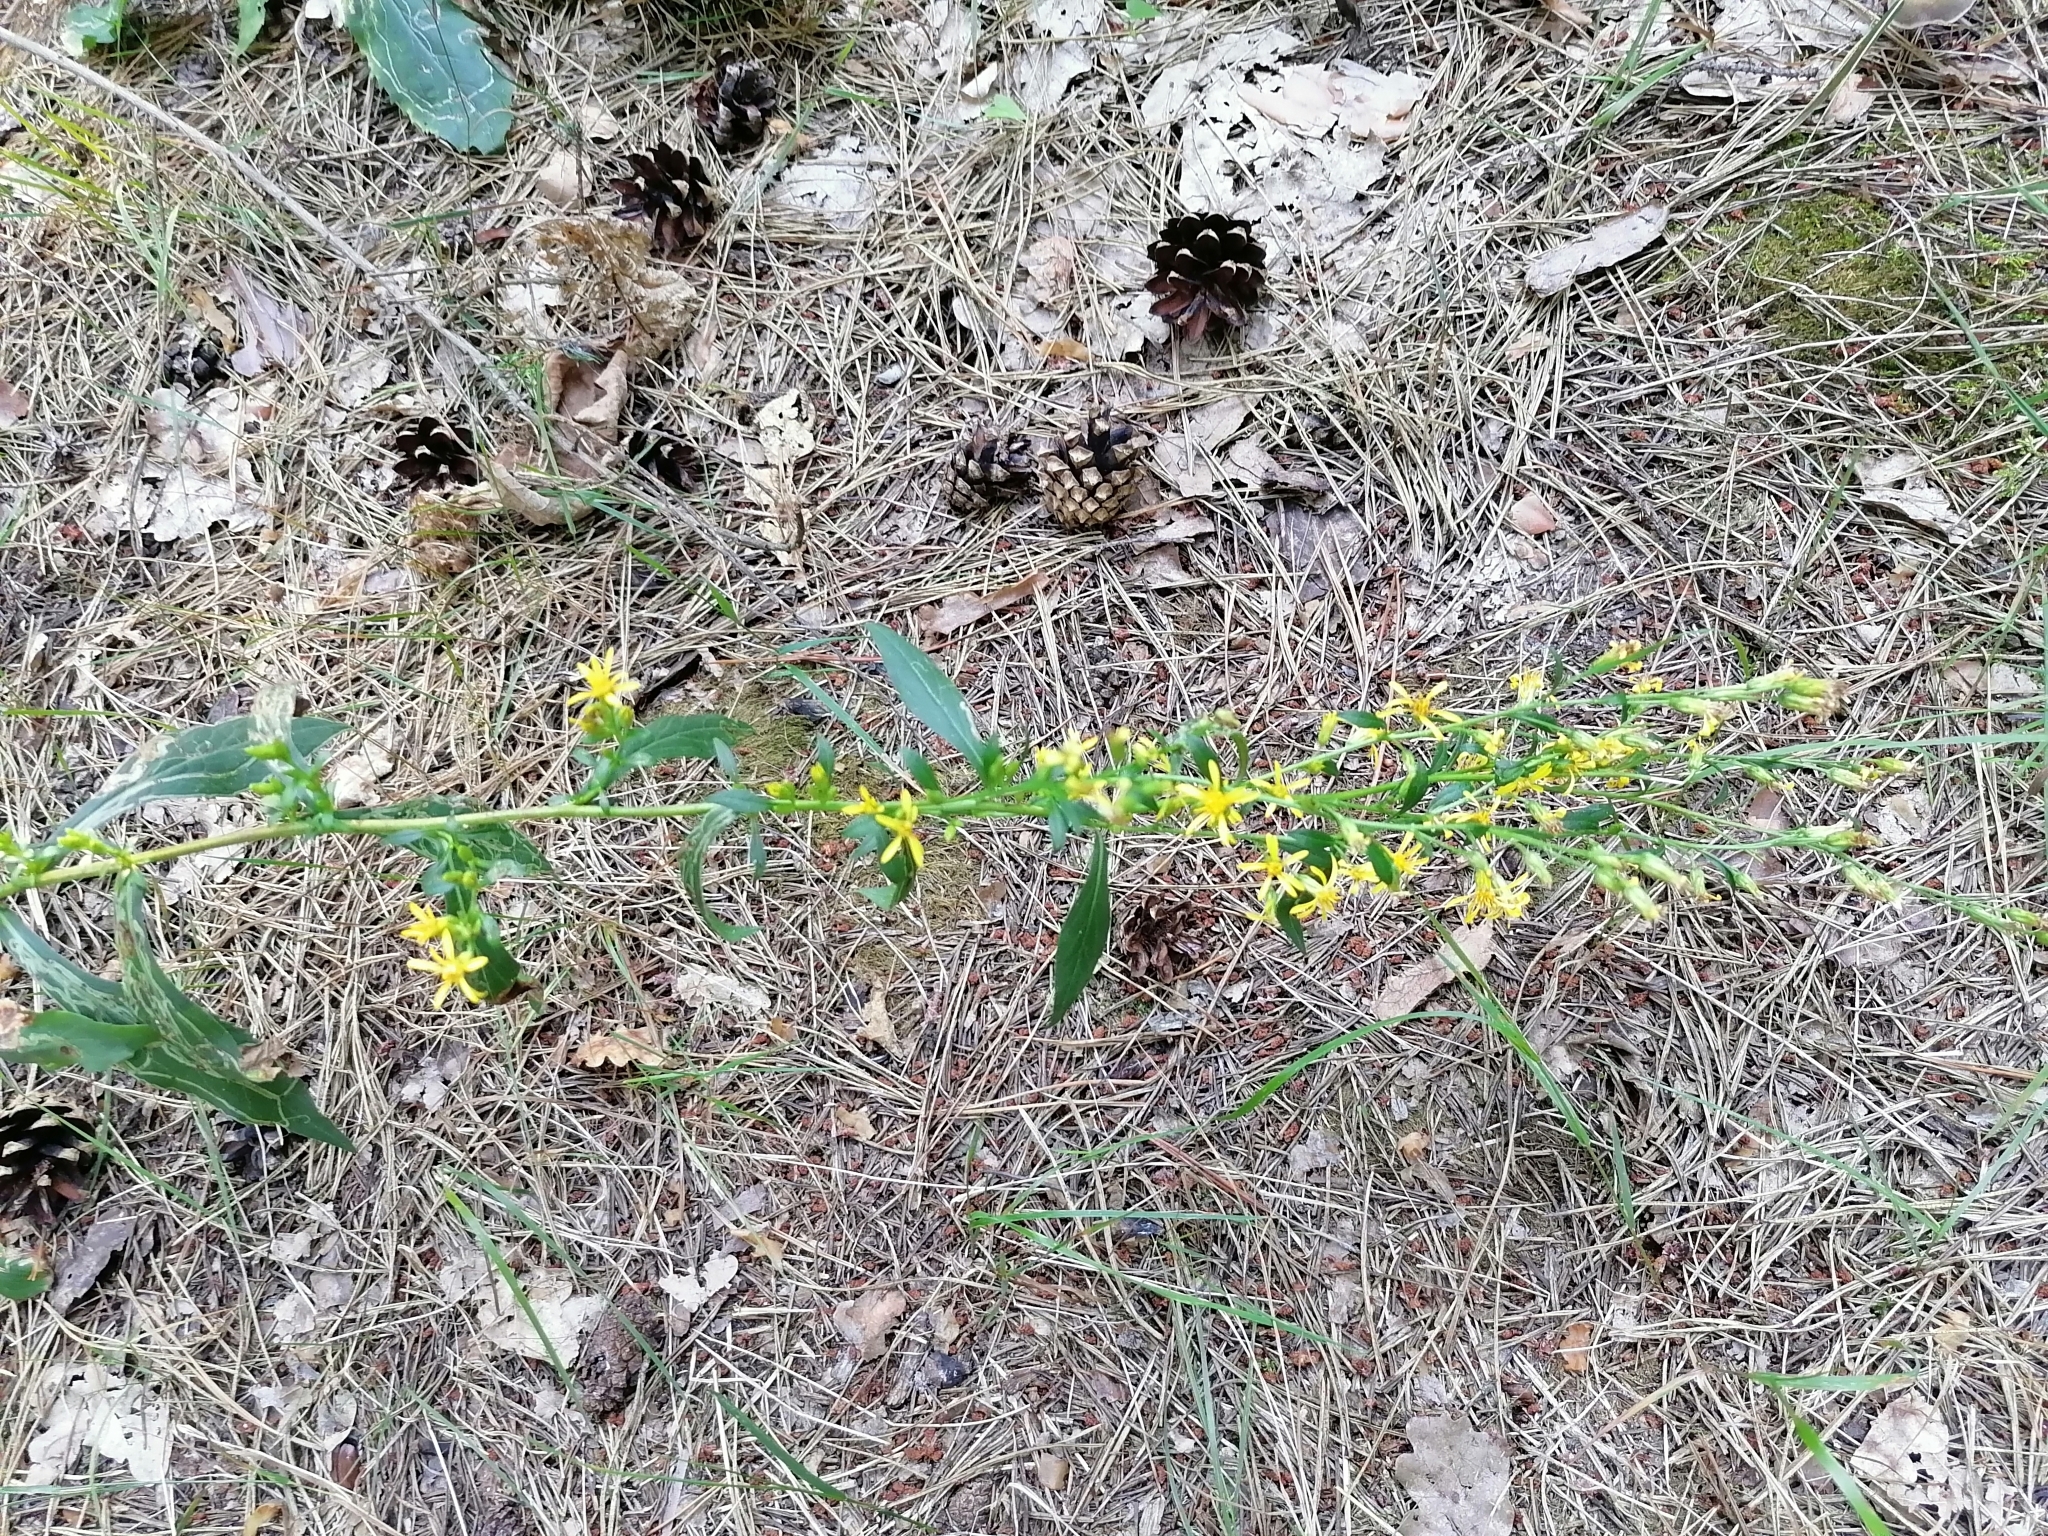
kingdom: Plantae
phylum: Tracheophyta
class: Magnoliopsida
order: Asterales
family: Asteraceae
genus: Solidago
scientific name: Solidago virgaurea
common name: Goldenrod
